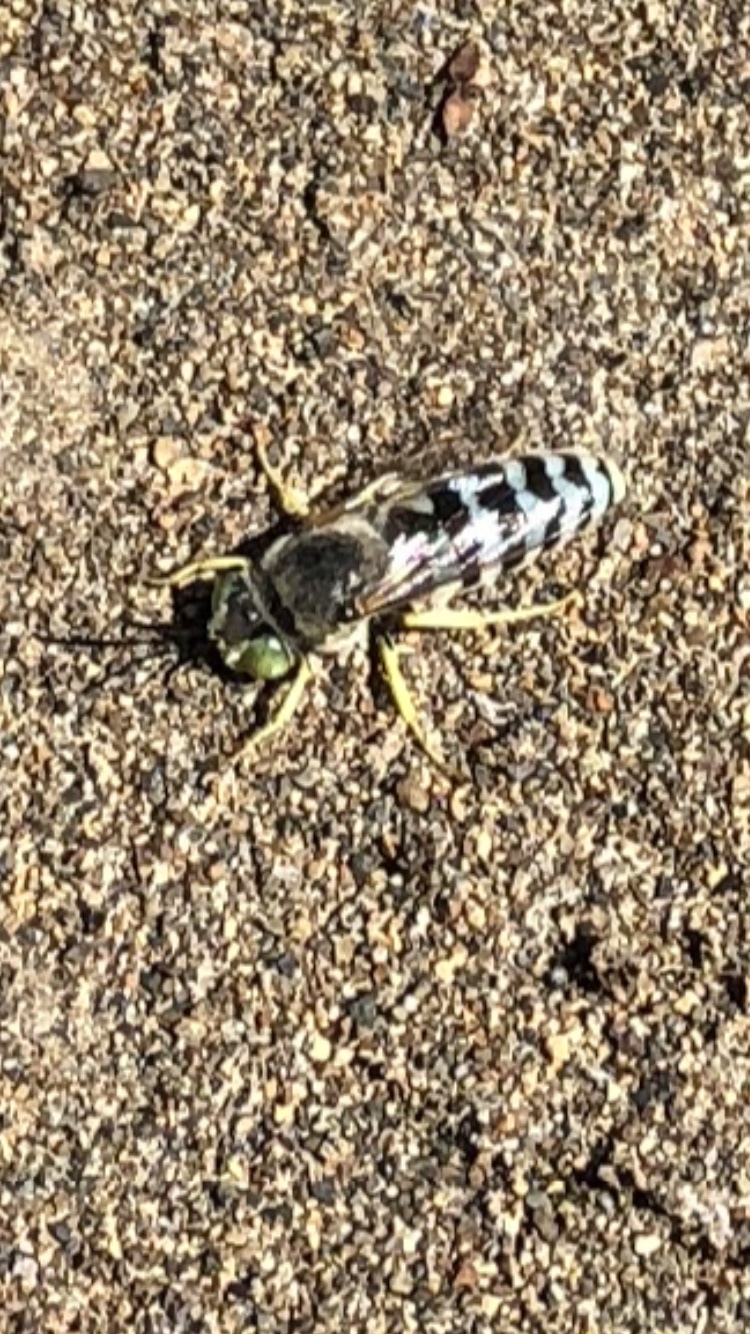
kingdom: Animalia
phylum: Arthropoda
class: Insecta
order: Hymenoptera
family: Crabronidae
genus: Bembix
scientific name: Bembix americana
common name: American sand wasp
